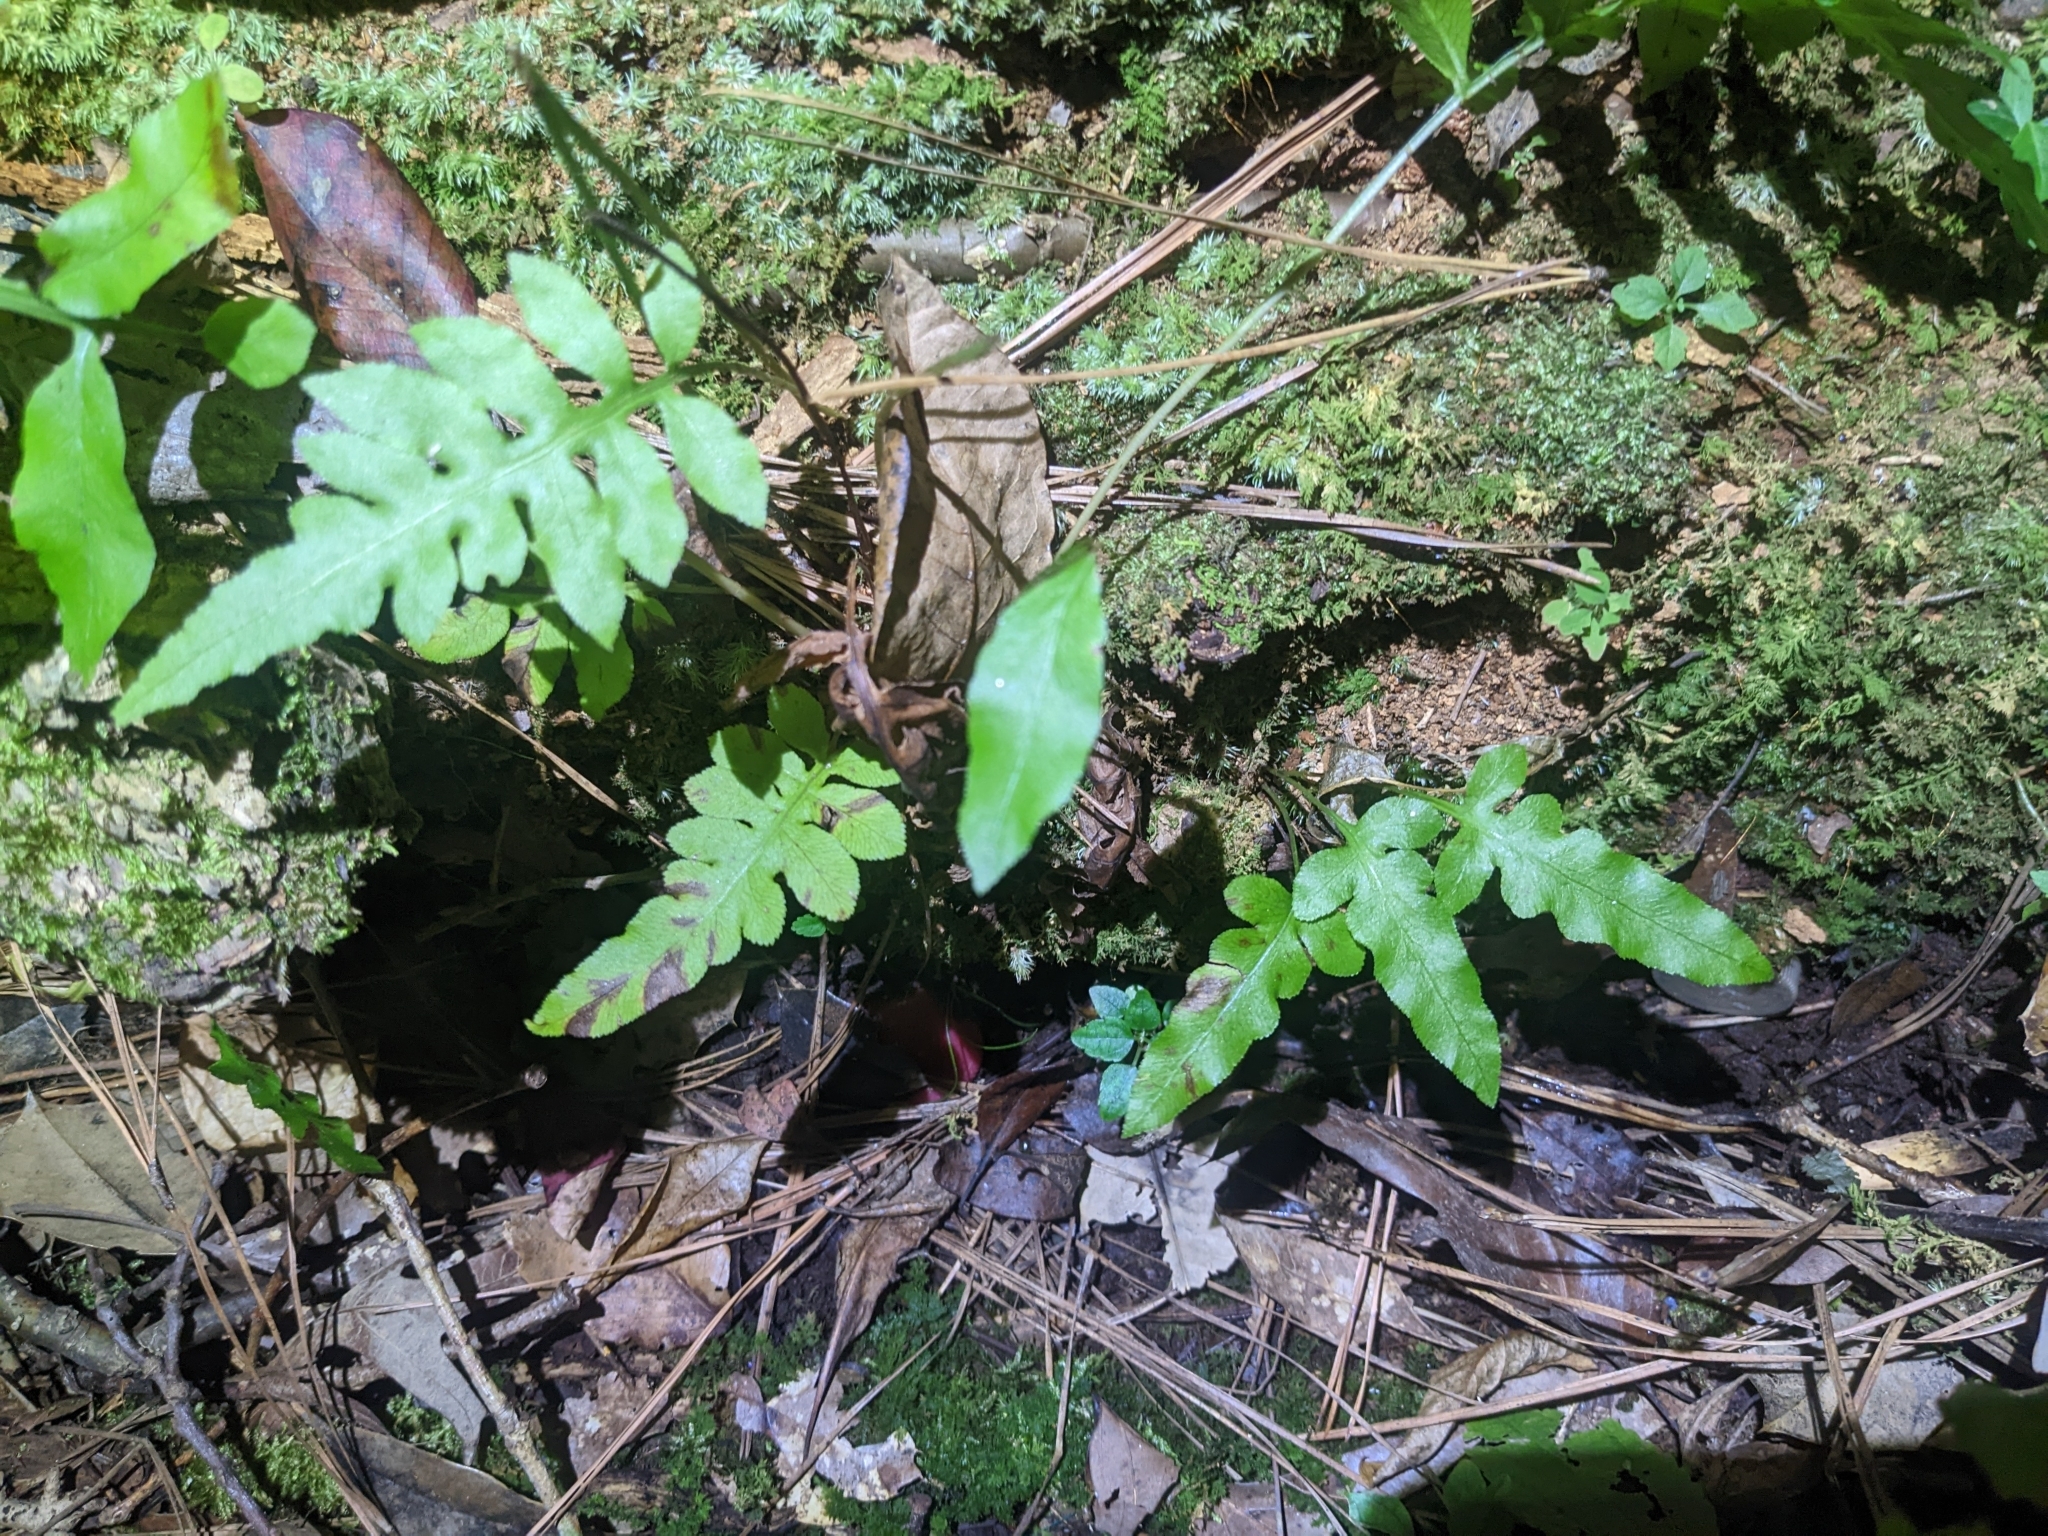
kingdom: Plantae
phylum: Tracheophyta
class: Polypodiopsida
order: Polypodiales
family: Blechnaceae
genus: Lorinseria
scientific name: Lorinseria areolata
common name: Dwarf chain fern
